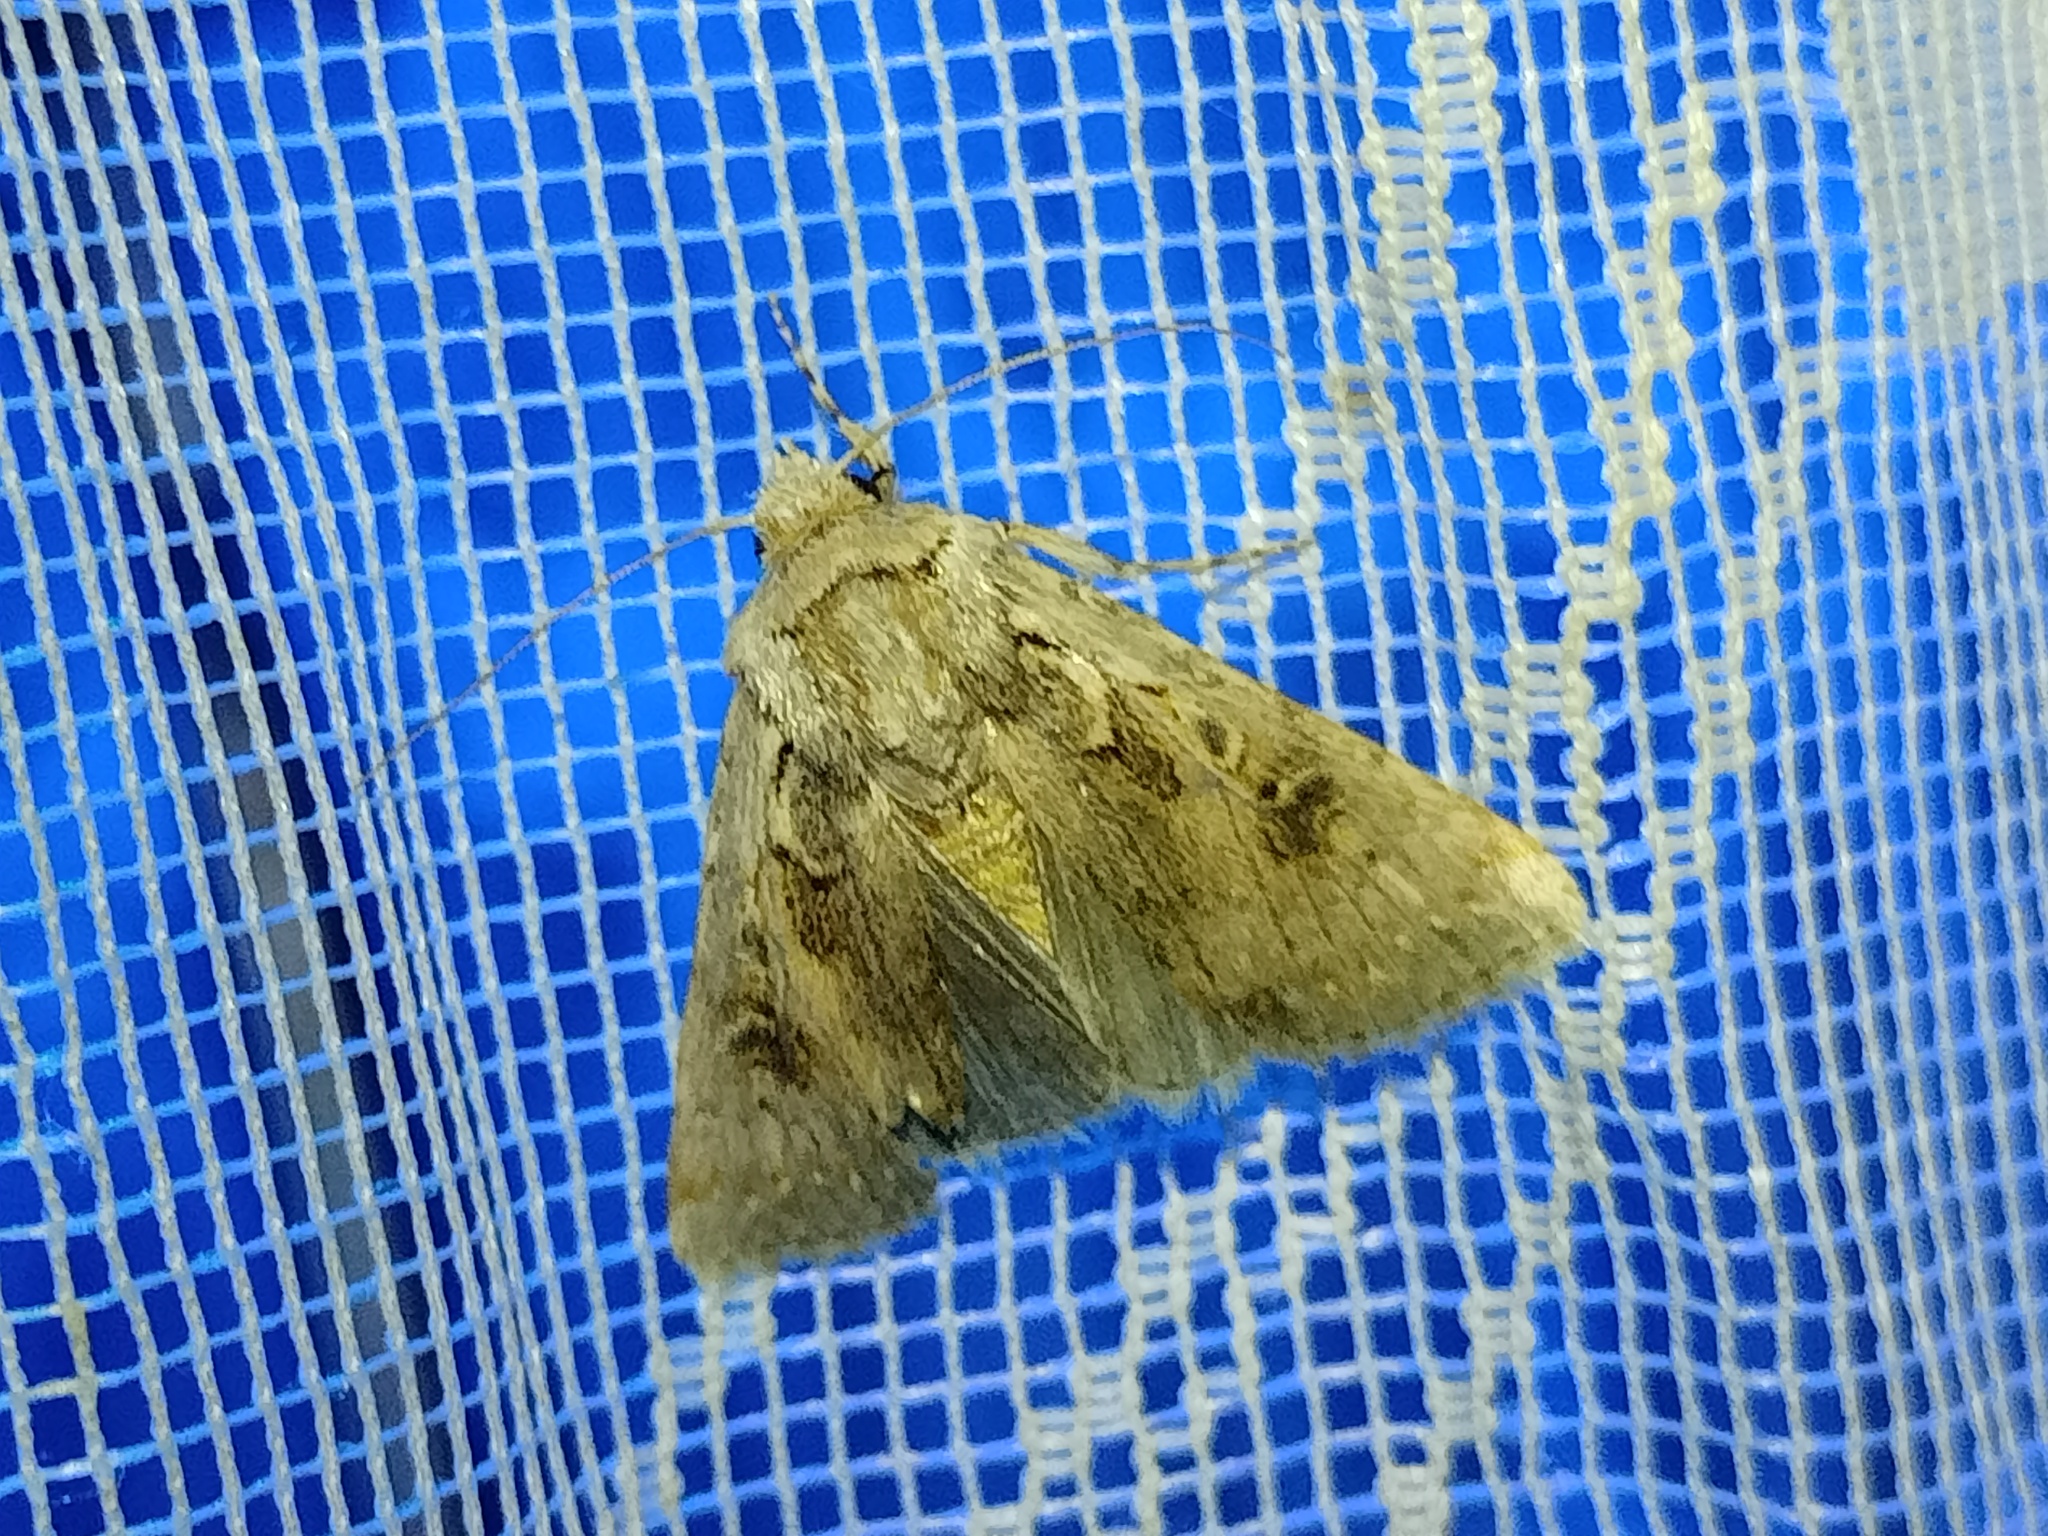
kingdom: Animalia
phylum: Arthropoda
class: Insecta
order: Lepidoptera
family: Noctuidae
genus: Agrotis
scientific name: Agrotis lanzarotensis
